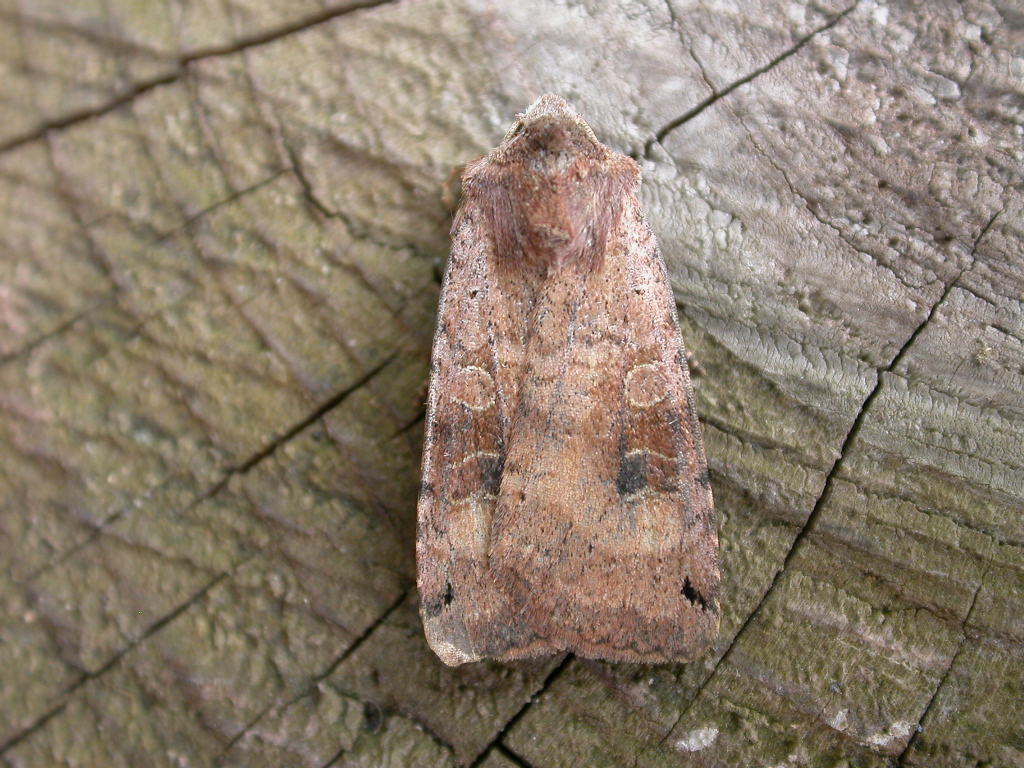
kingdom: Animalia
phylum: Arthropoda
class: Insecta
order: Lepidoptera
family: Noctuidae
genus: Xestia
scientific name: Xestia baja
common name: Dotted clay
